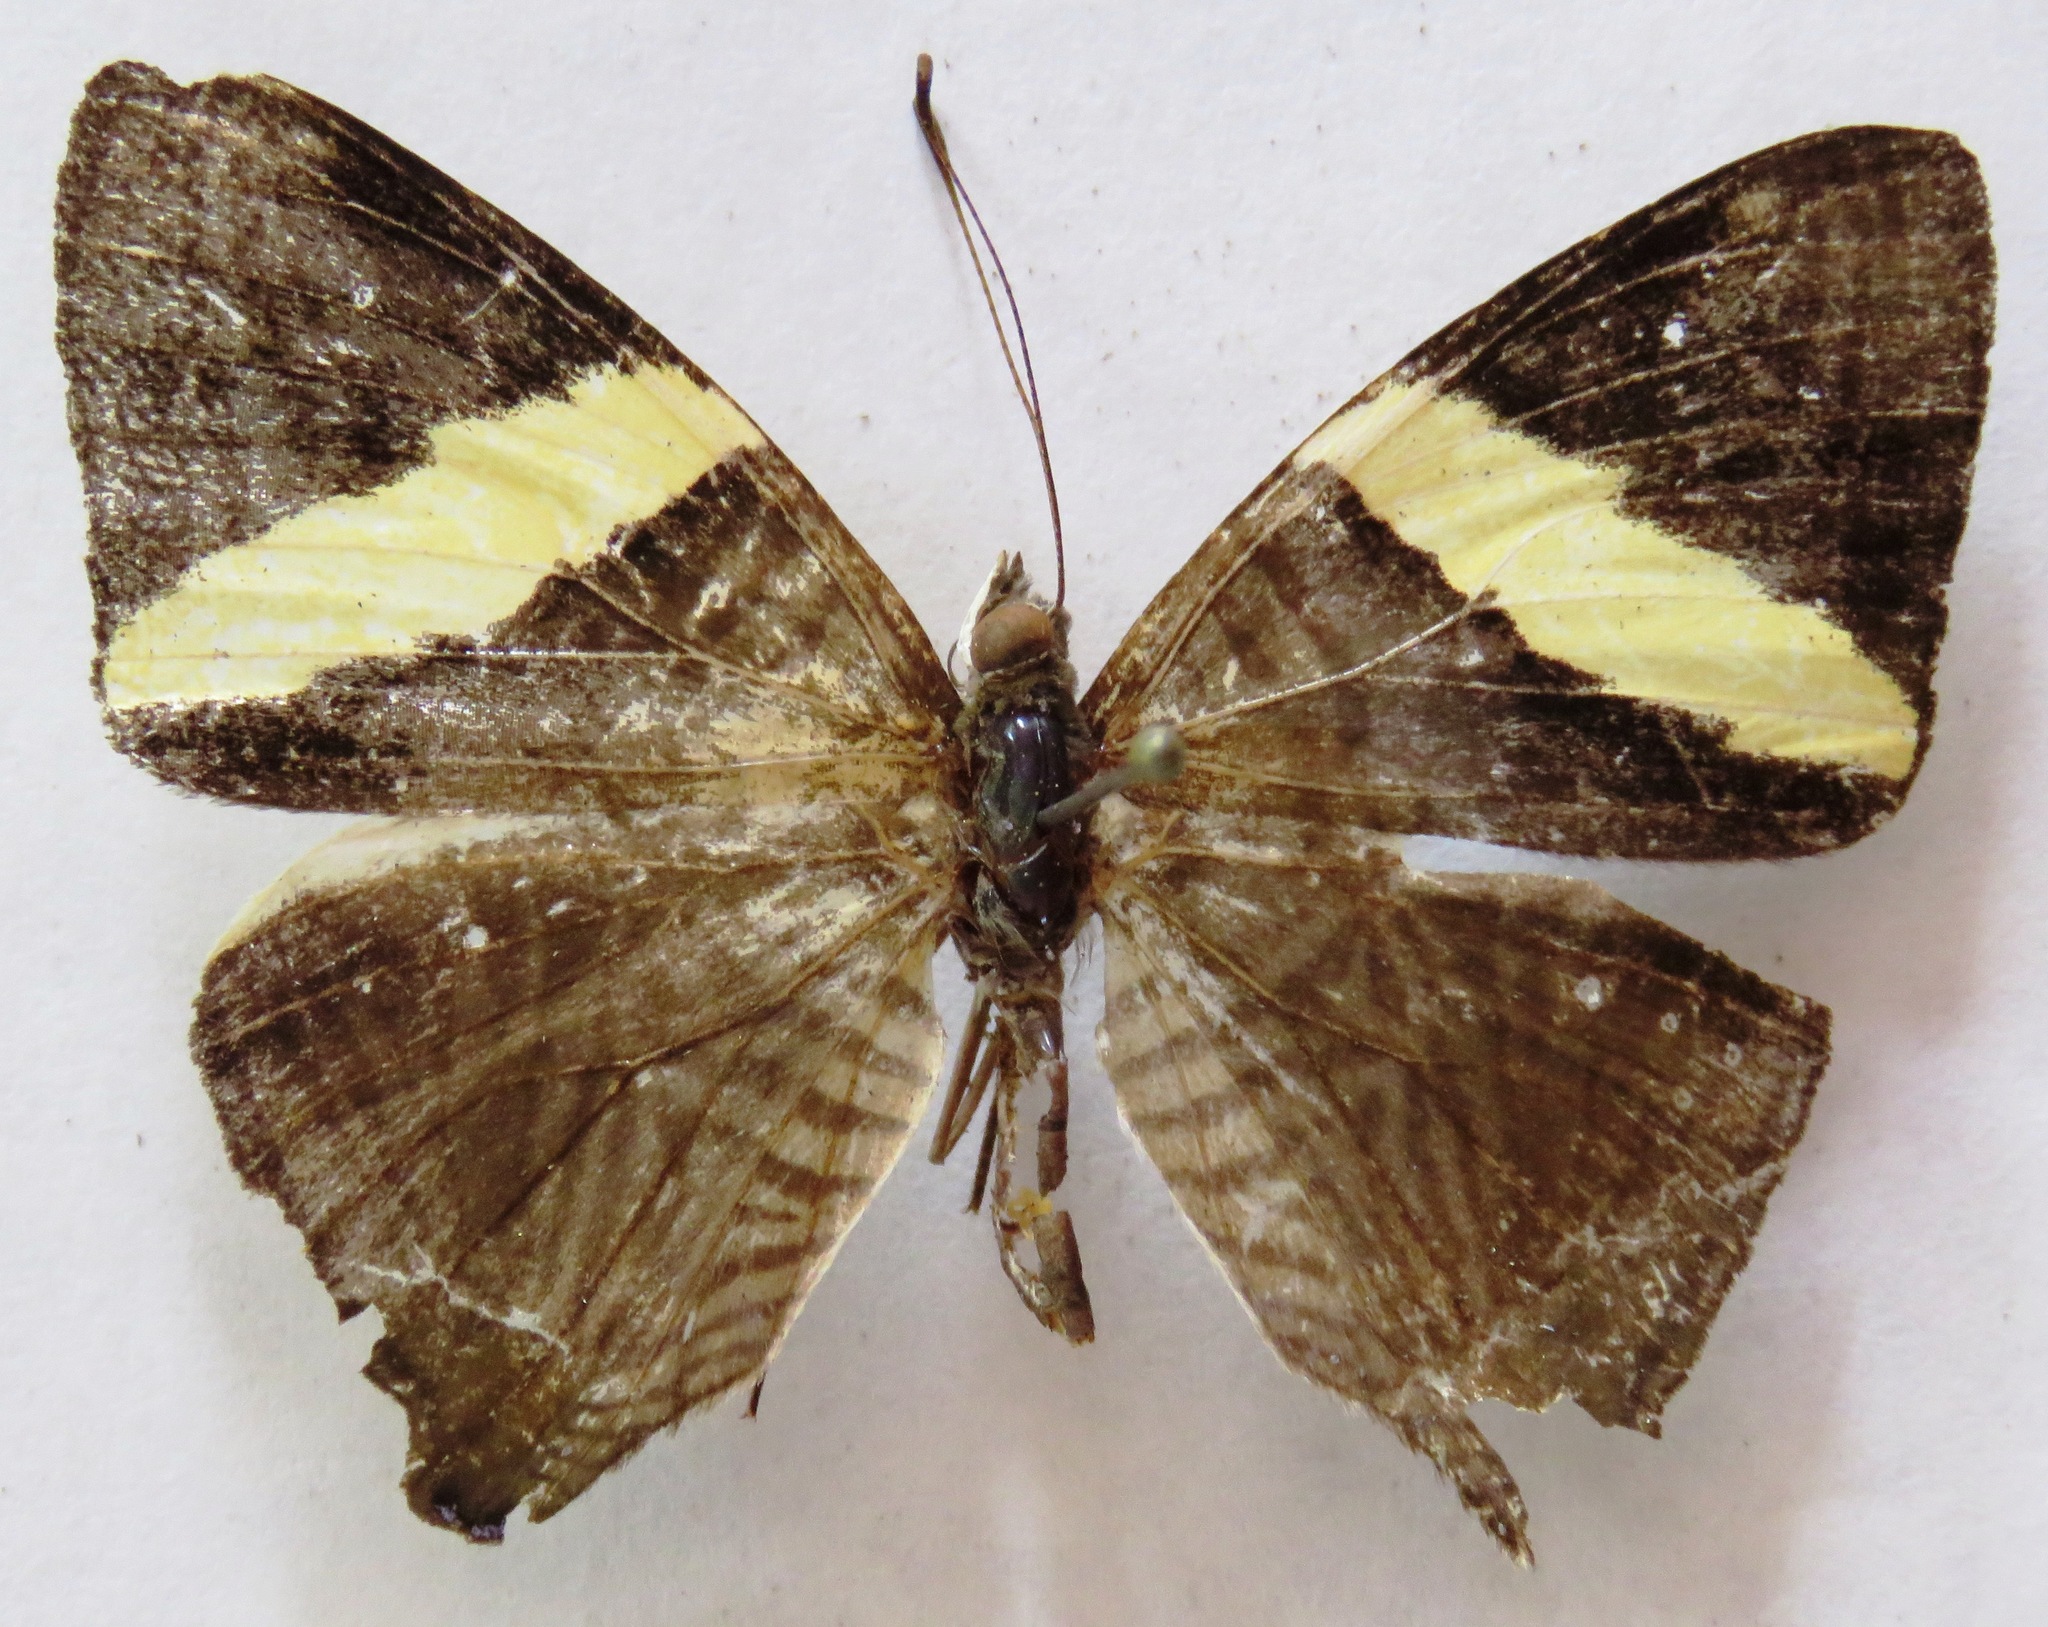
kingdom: Animalia
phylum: Arthropoda
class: Insecta
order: Lepidoptera
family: Nymphalidae
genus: Colobura
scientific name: Colobura dirce
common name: Dirce beauty
